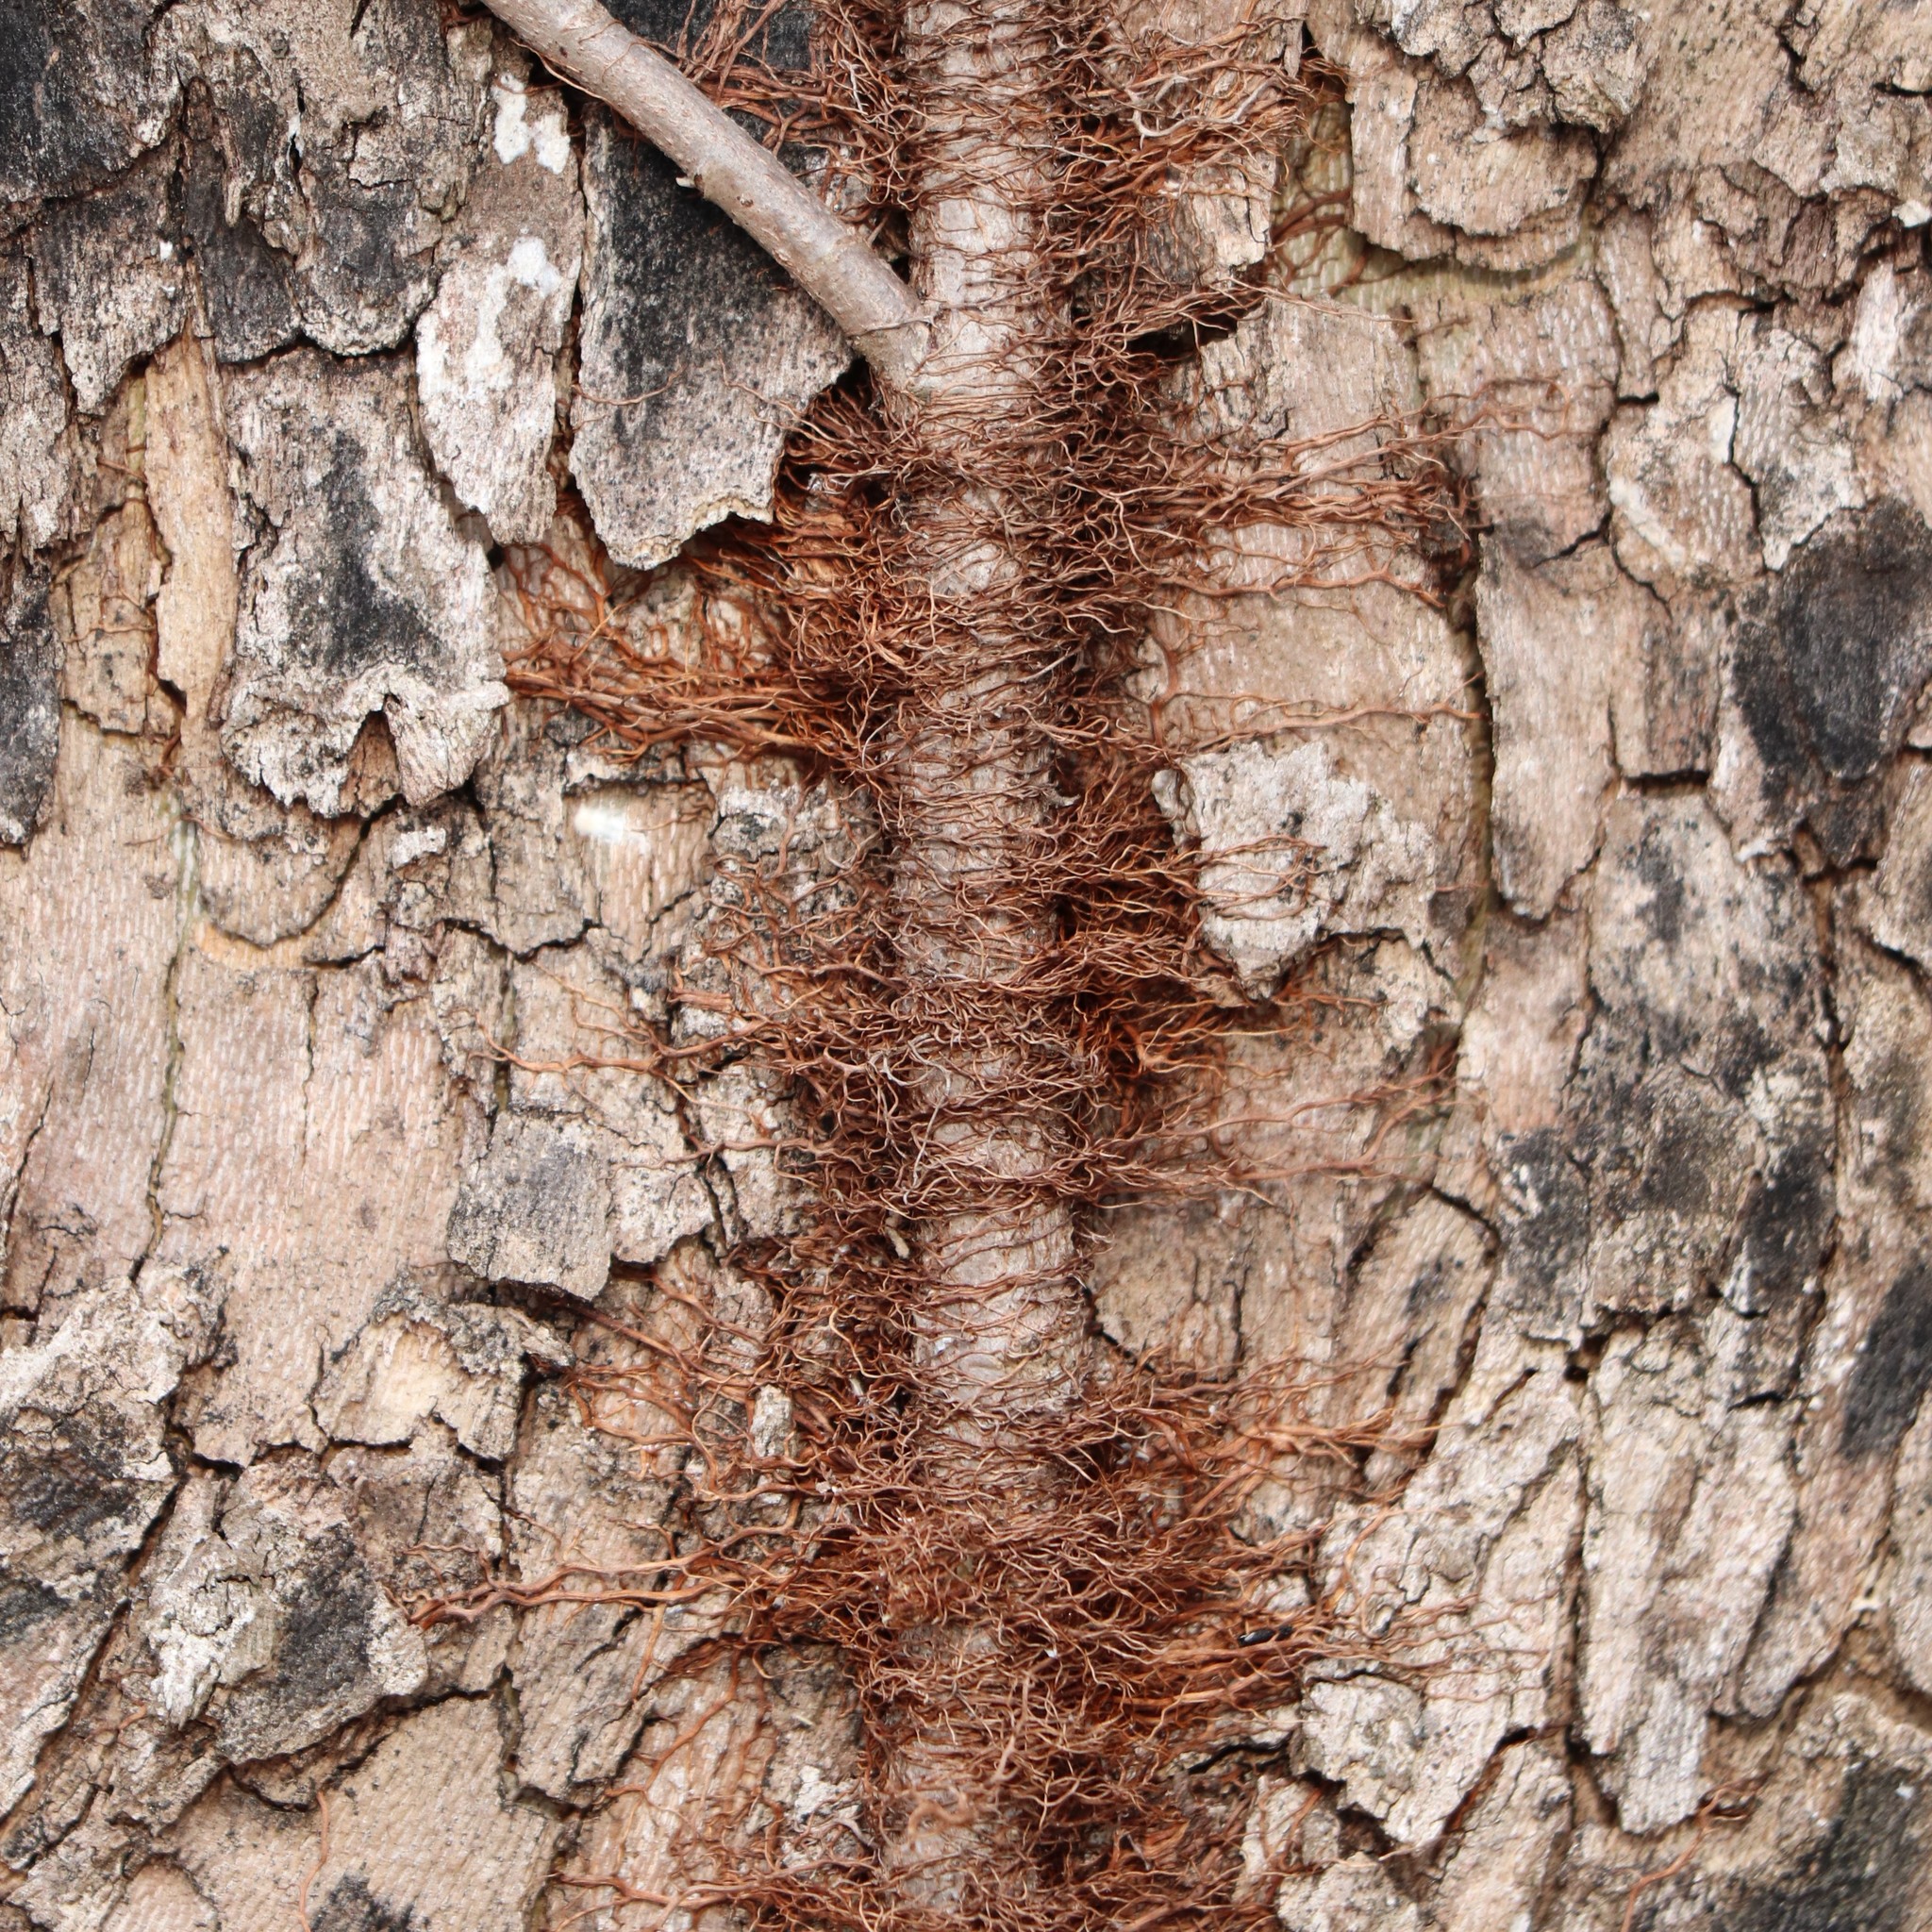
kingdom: Plantae
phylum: Tracheophyta
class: Magnoliopsida
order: Sapindales
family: Anacardiaceae
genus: Toxicodendron
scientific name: Toxicodendron radicans
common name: Poison ivy
